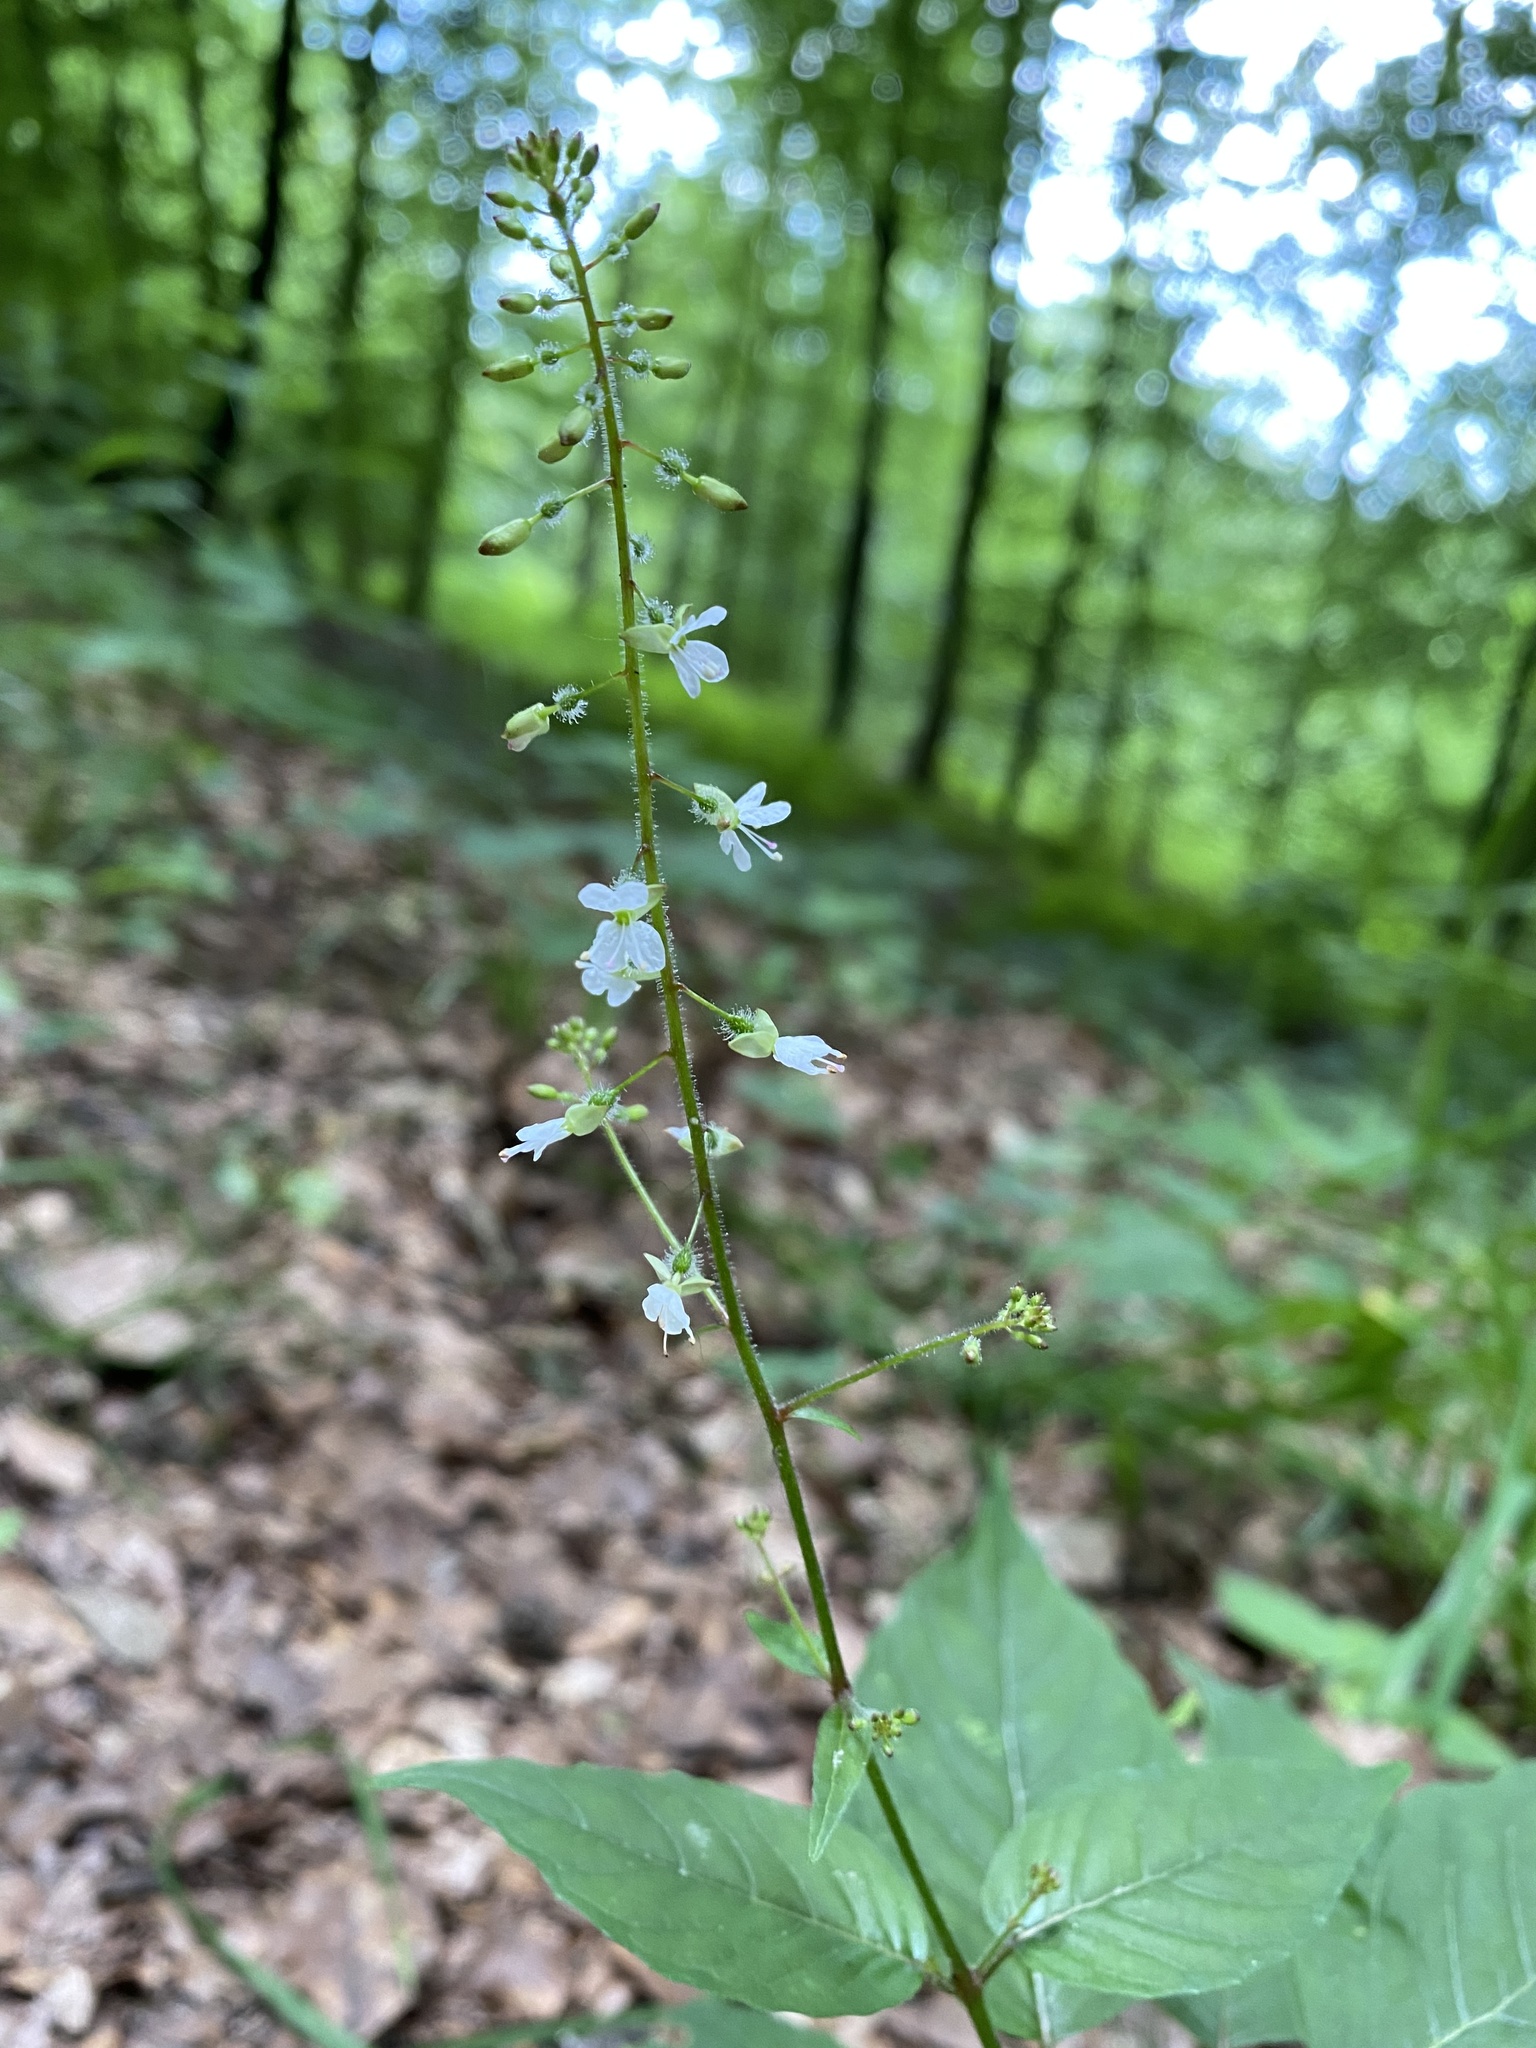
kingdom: Plantae
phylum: Tracheophyta
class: Magnoliopsida
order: Myrtales
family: Onagraceae
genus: Circaea
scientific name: Circaea lutetiana
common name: Enchanter's-nightshade
